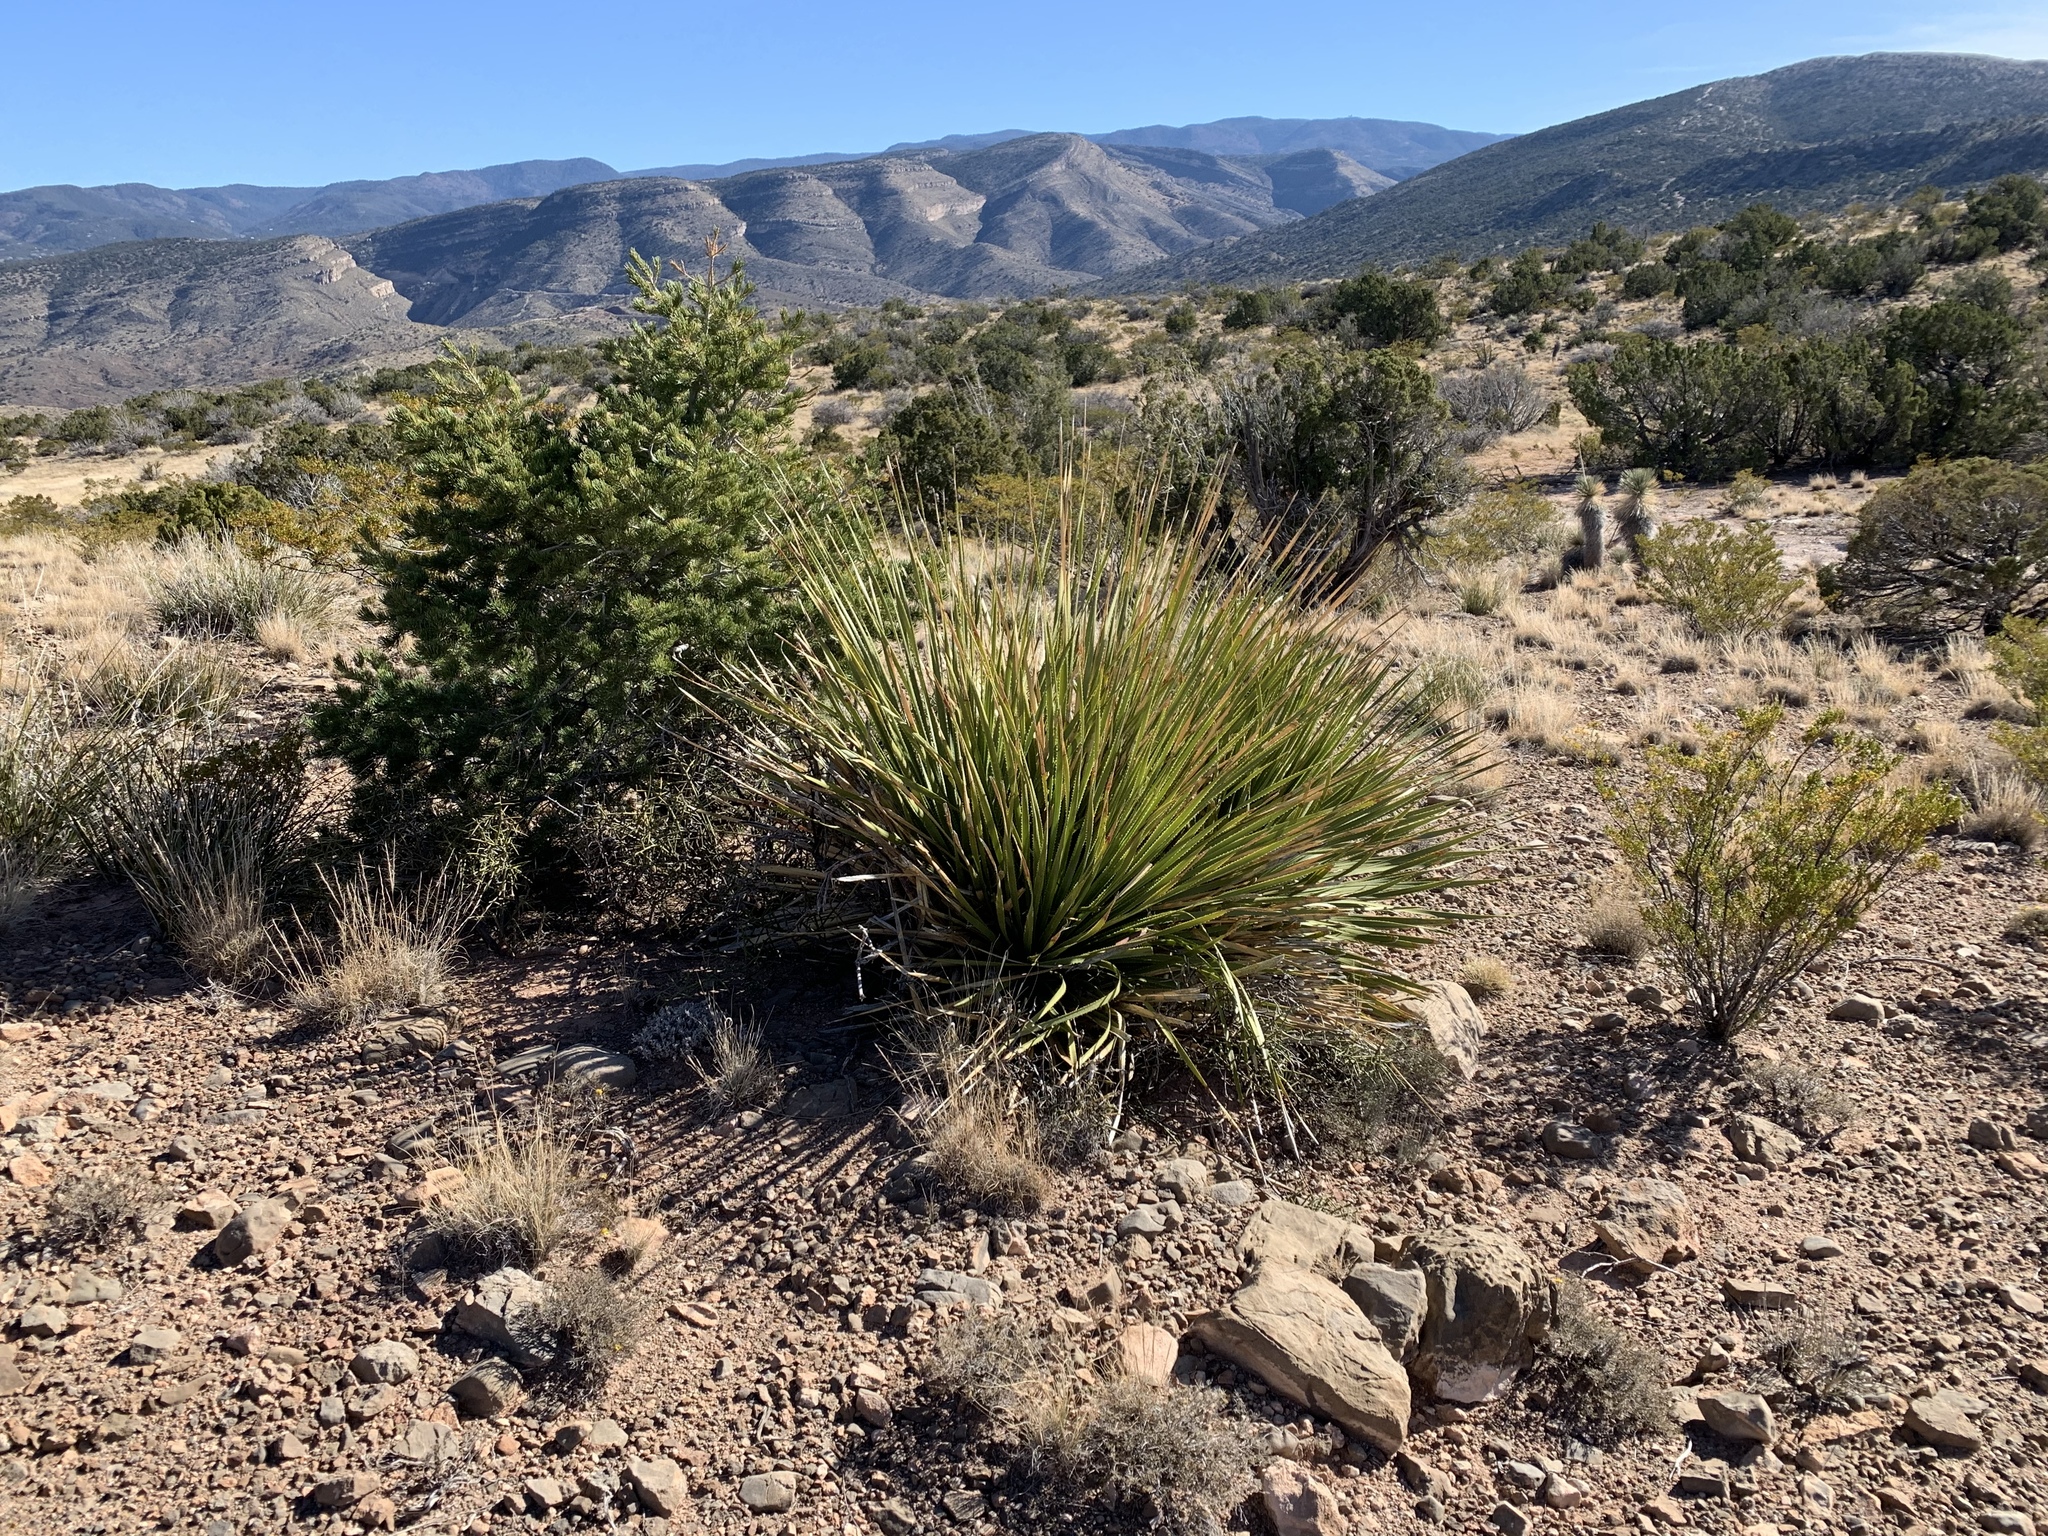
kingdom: Plantae
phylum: Tracheophyta
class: Liliopsida
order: Asparagales
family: Asparagaceae
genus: Dasylirion
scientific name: Dasylirion wheeleri
